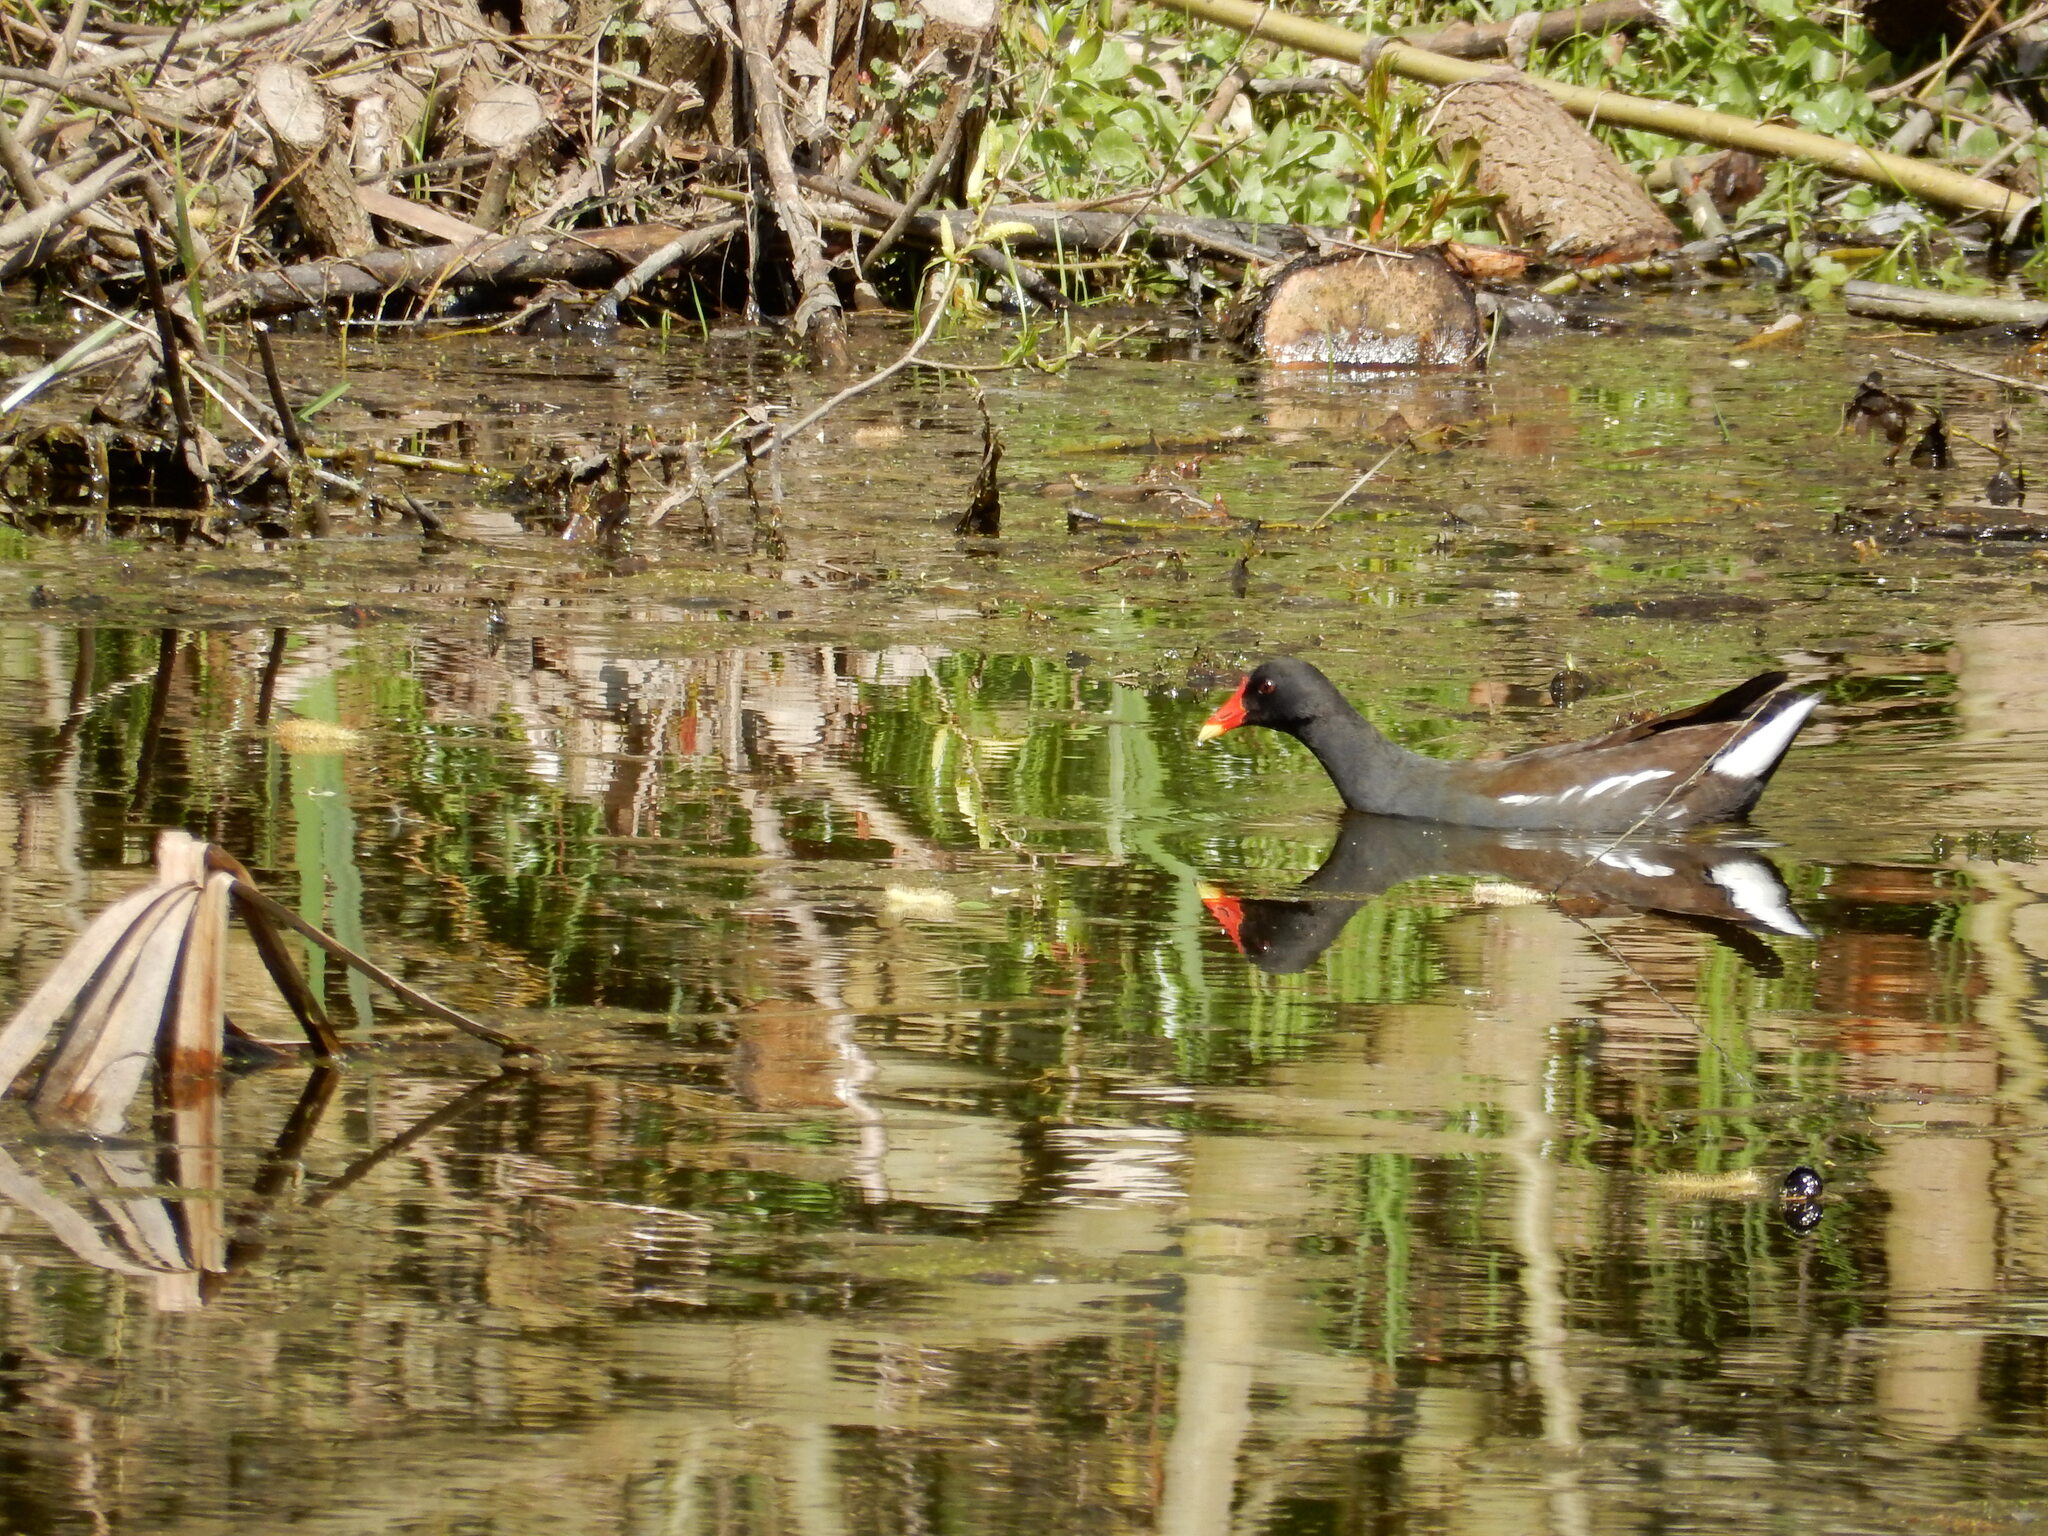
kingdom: Animalia
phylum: Chordata
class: Aves
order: Gruiformes
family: Rallidae
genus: Gallinula
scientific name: Gallinula chloropus
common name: Common moorhen
